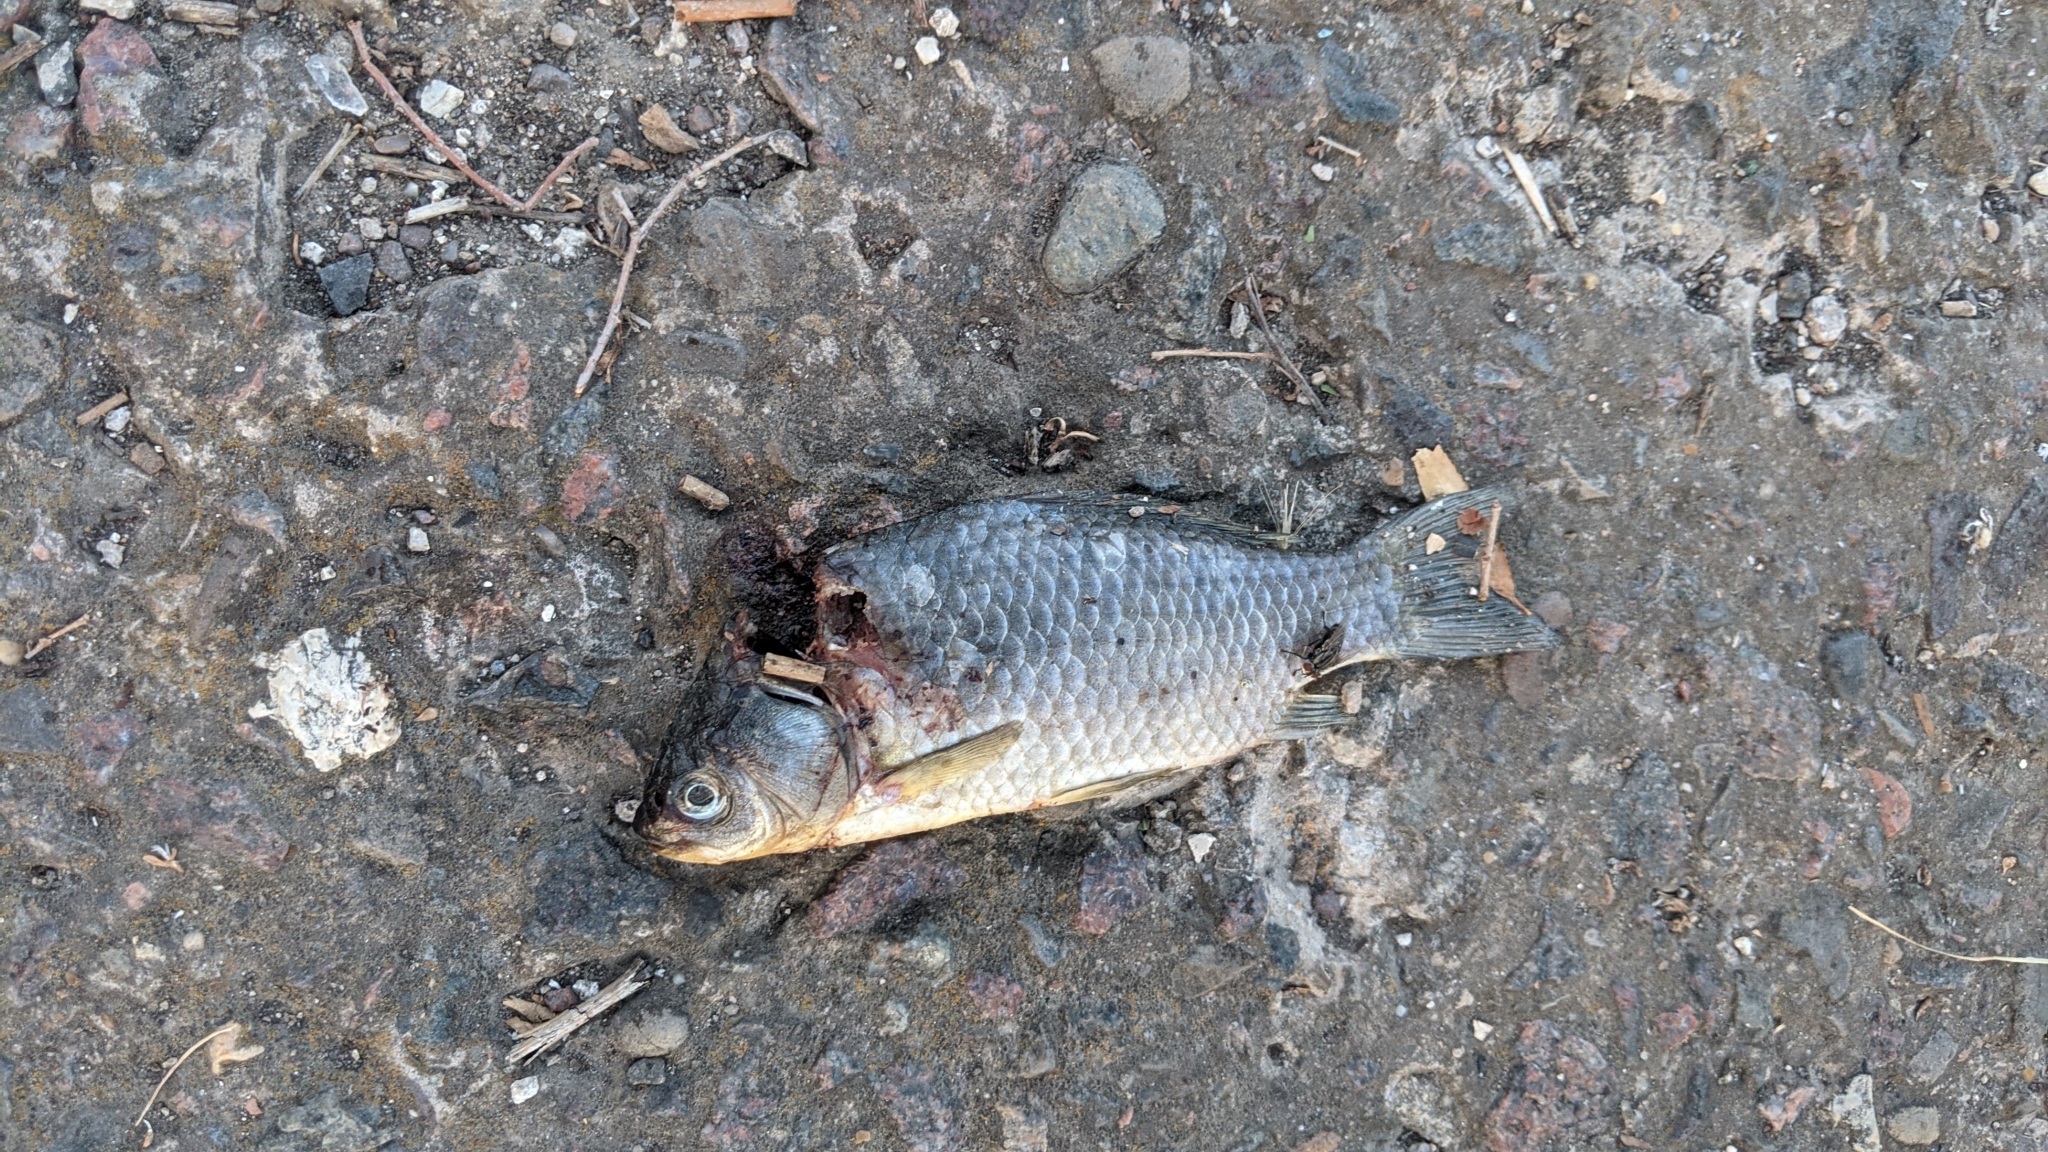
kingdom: Animalia
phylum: Chordata
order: Cypriniformes
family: Cyprinidae
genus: Carassius
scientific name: Carassius gibelio
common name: Prussian carp
